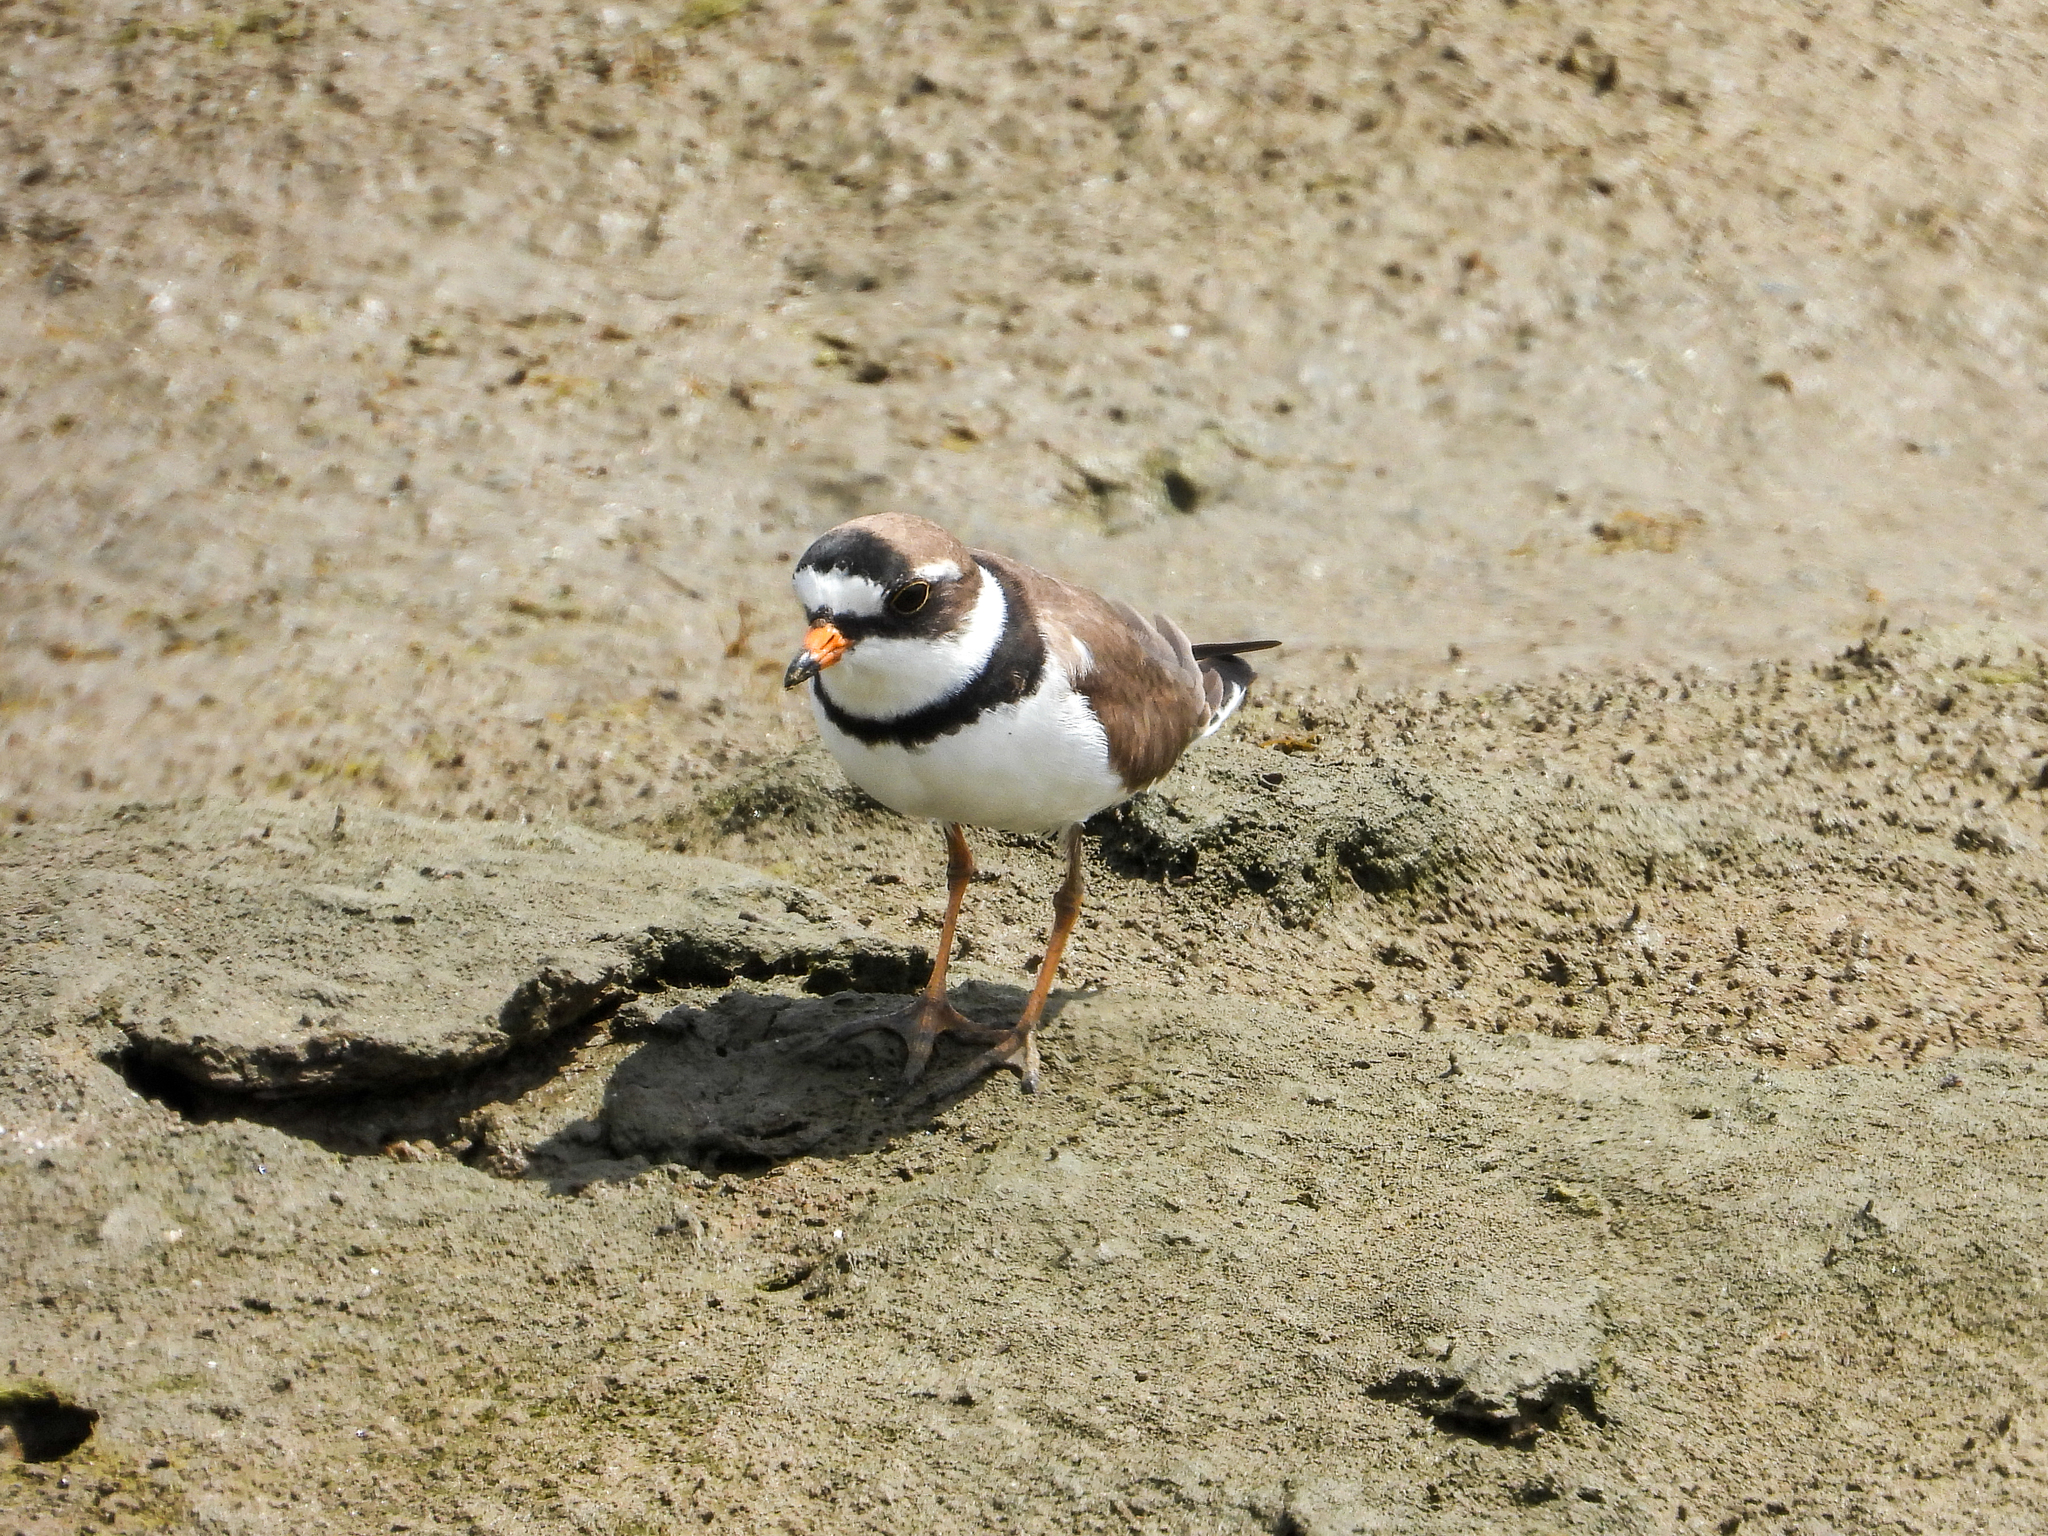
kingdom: Animalia
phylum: Chordata
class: Aves
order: Charadriiformes
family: Charadriidae
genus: Charadrius
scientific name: Charadrius semipalmatus
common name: Semipalmated plover
